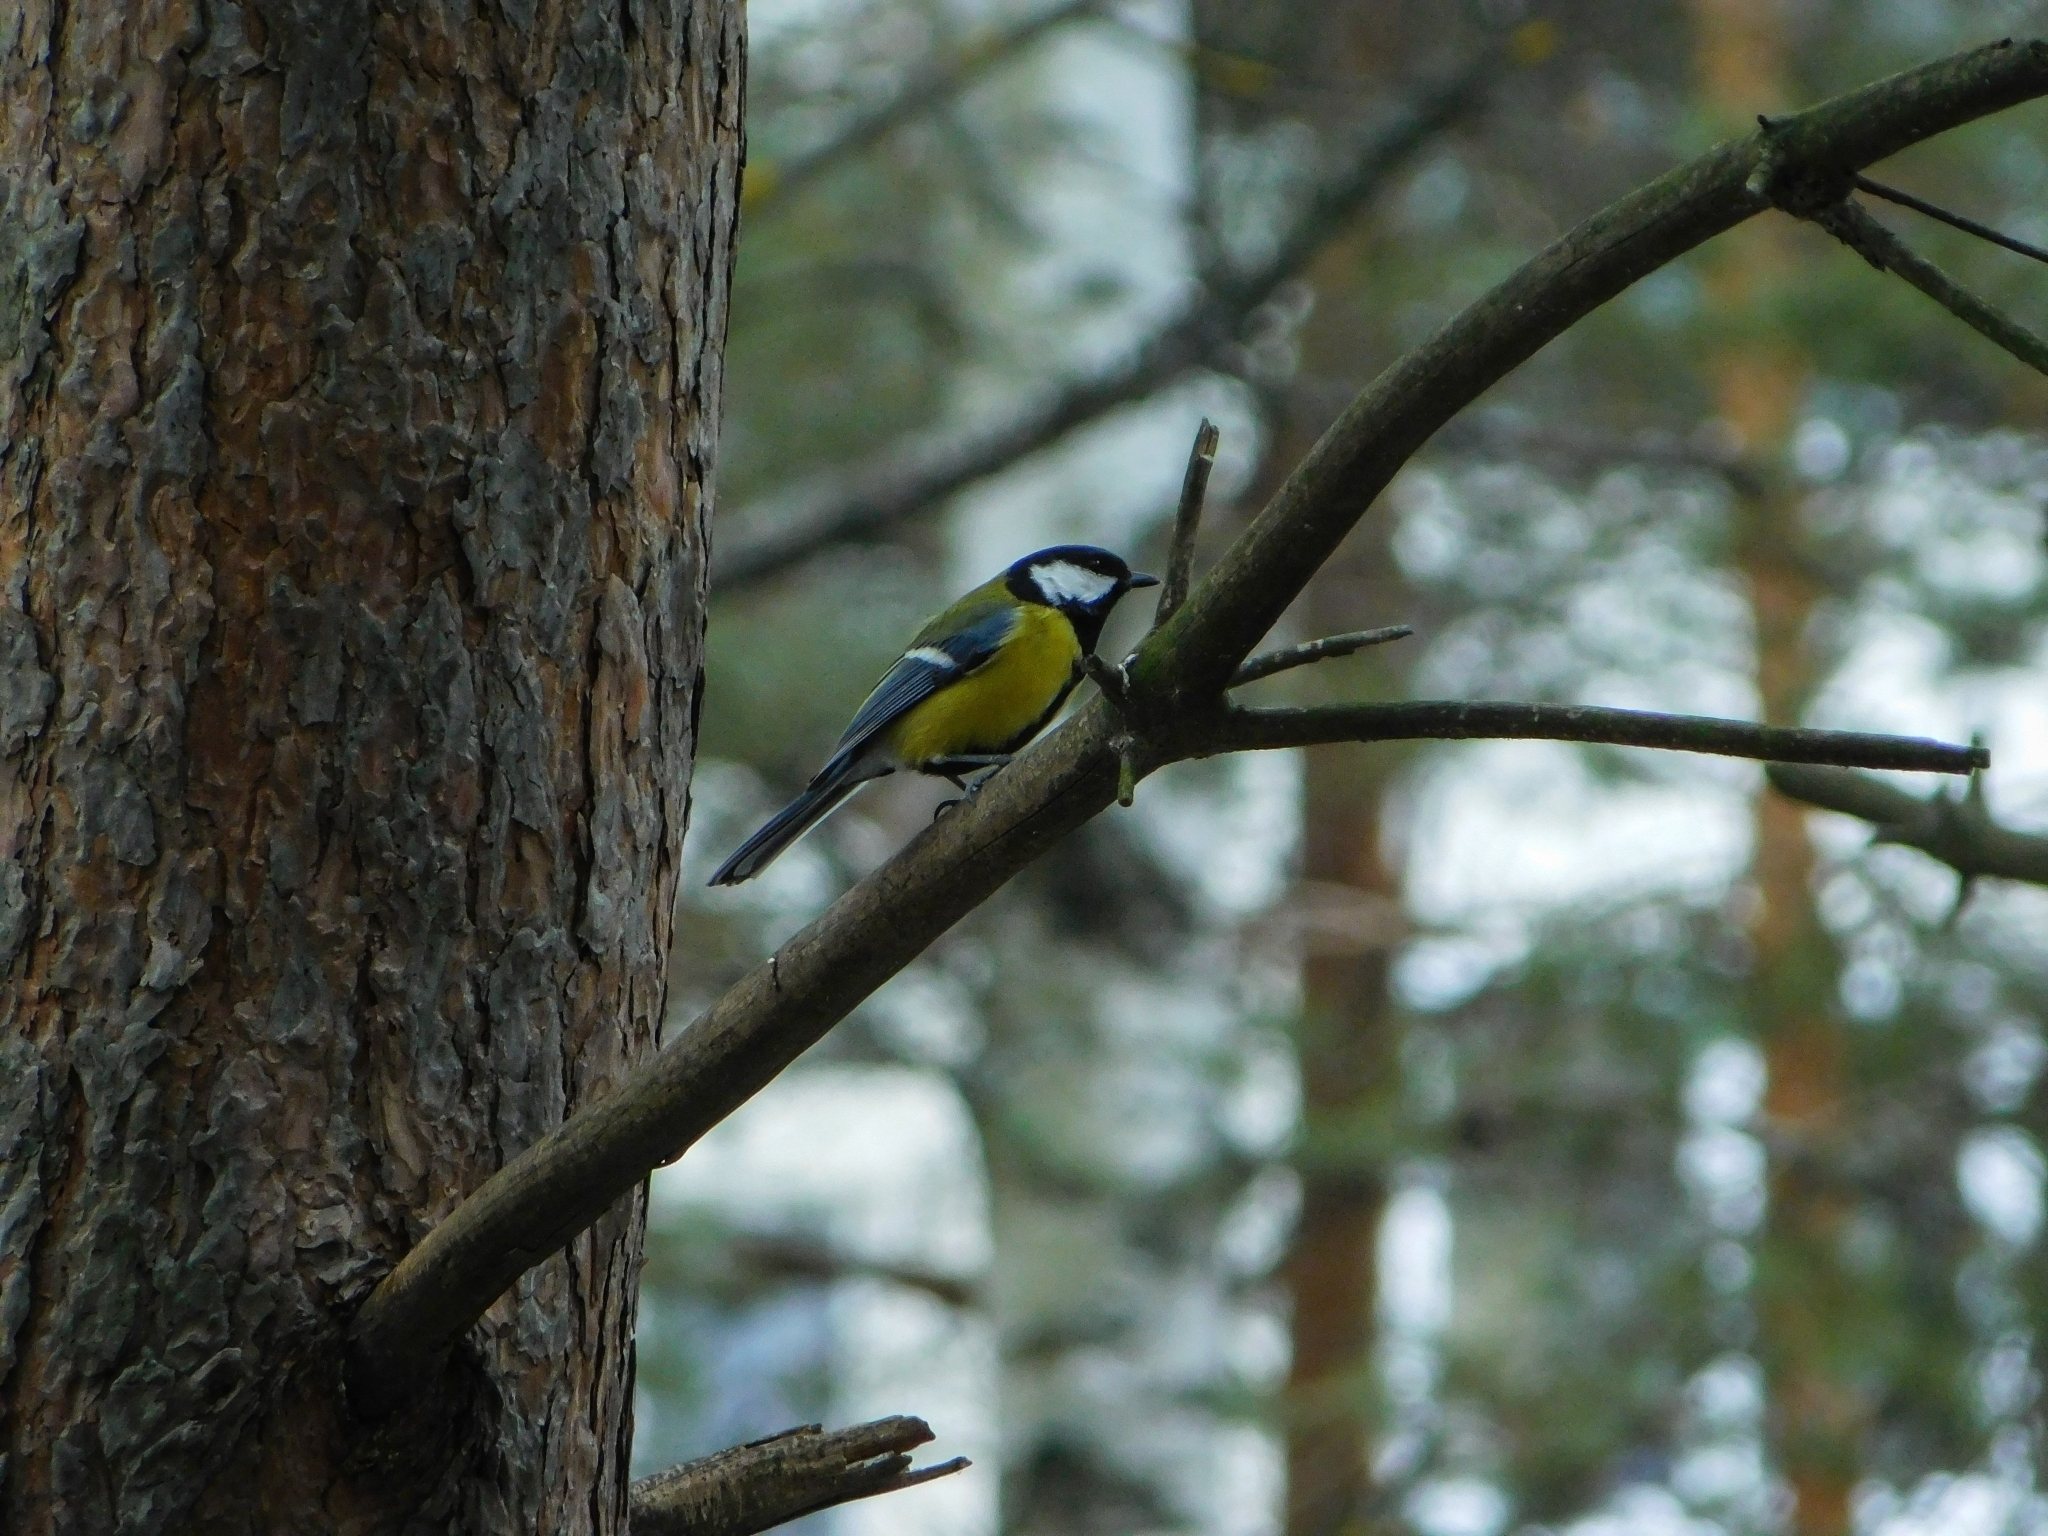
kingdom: Animalia
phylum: Chordata
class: Aves
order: Passeriformes
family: Paridae
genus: Parus
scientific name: Parus major
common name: Great tit
